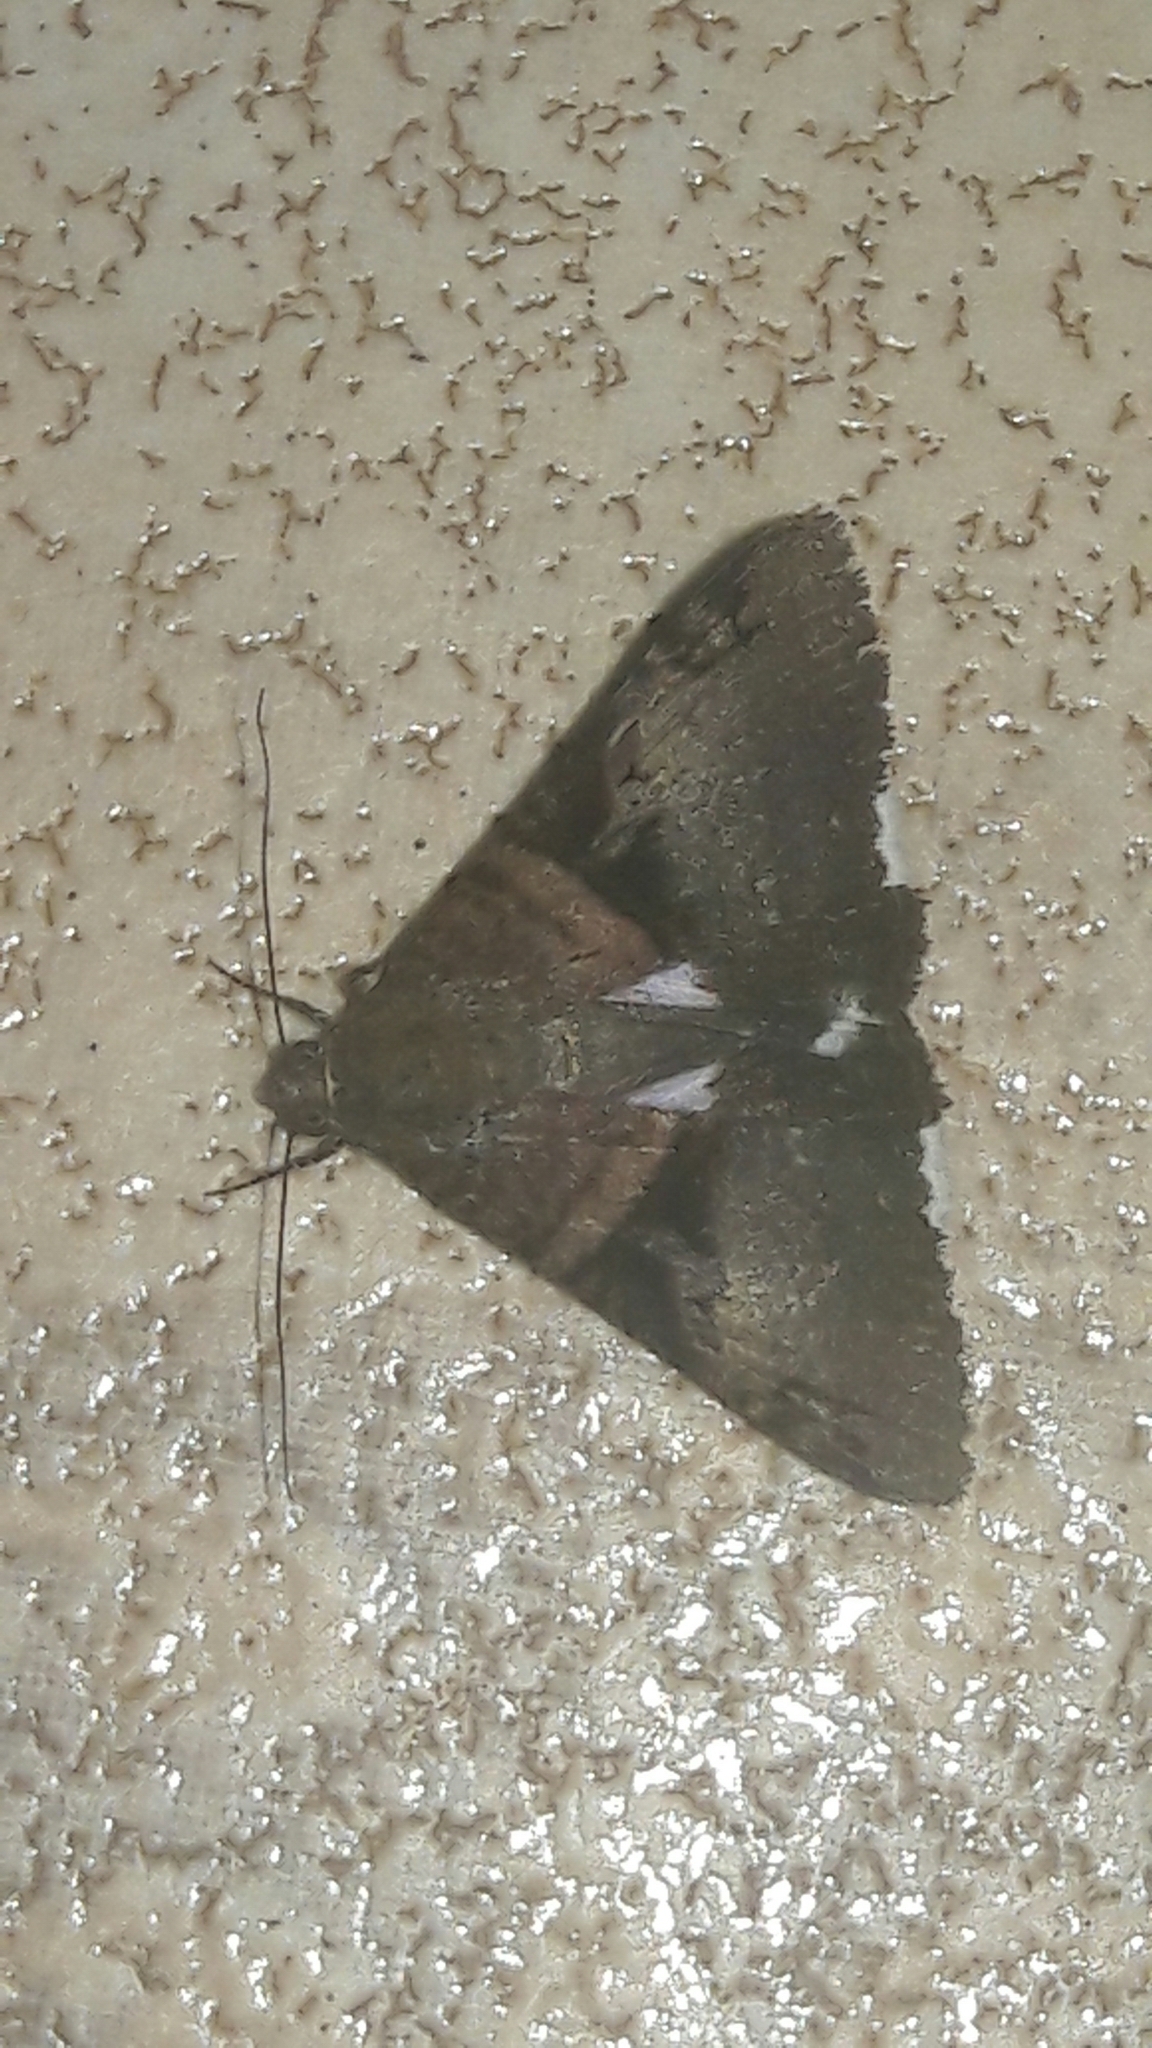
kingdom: Animalia
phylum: Arthropoda
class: Insecta
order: Lepidoptera
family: Erebidae
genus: Melipotis
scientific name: Melipotis nigrobasis
